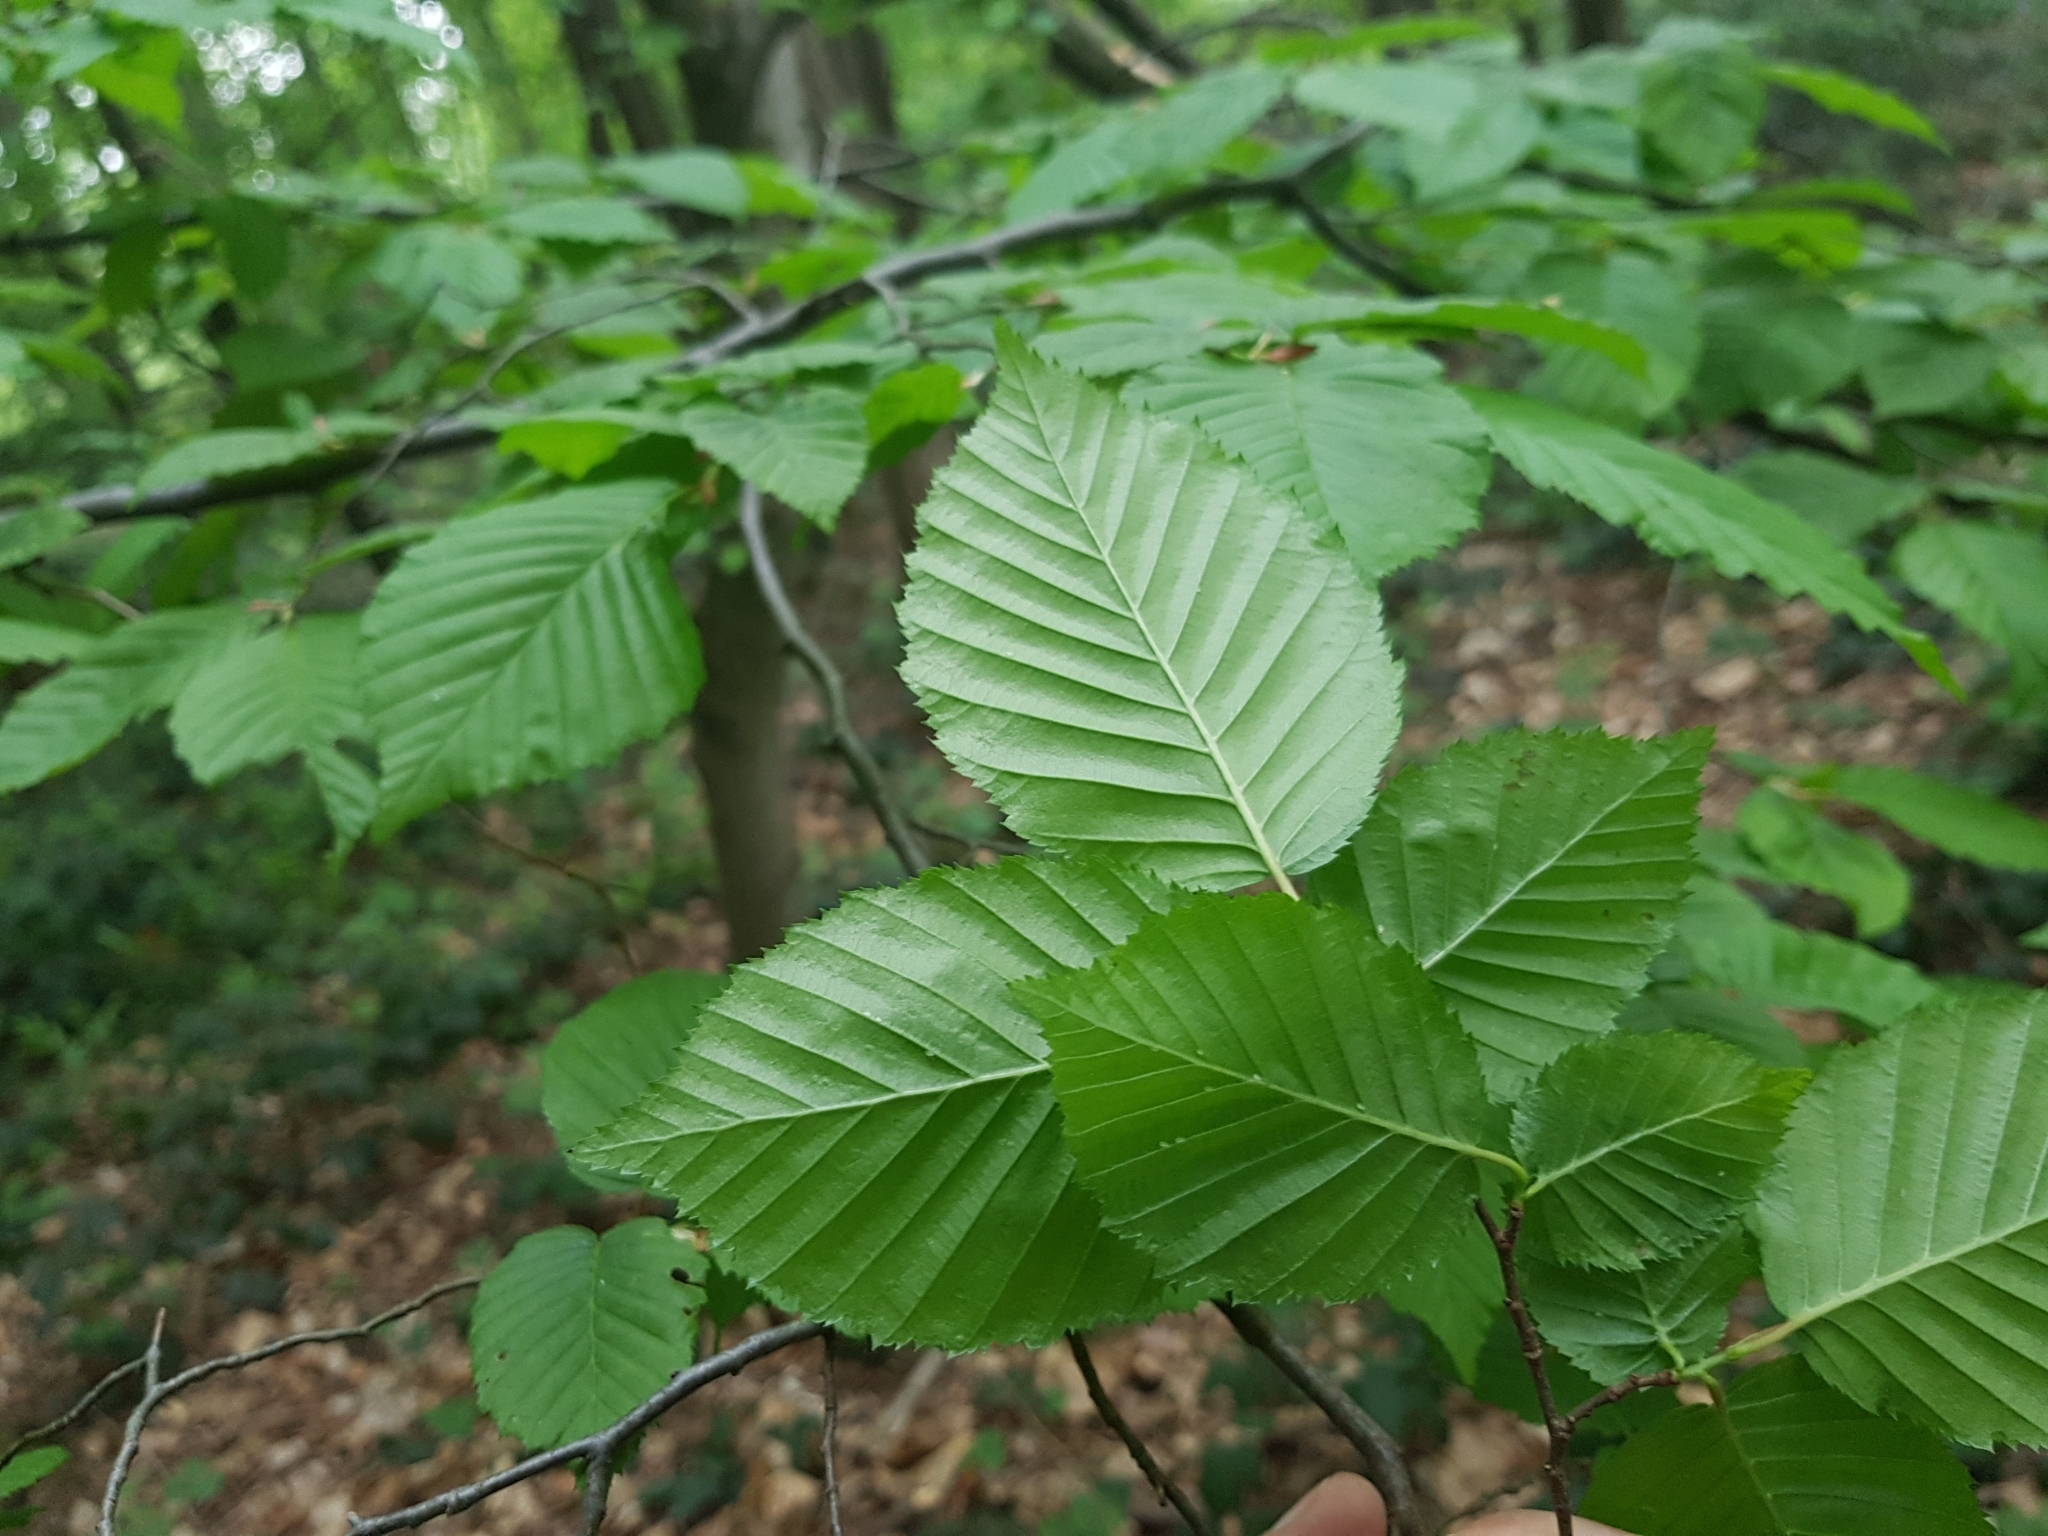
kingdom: Plantae
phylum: Tracheophyta
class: Magnoliopsida
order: Fagales
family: Betulaceae
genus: Carpinus
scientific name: Carpinus betulus
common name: Hornbeam
